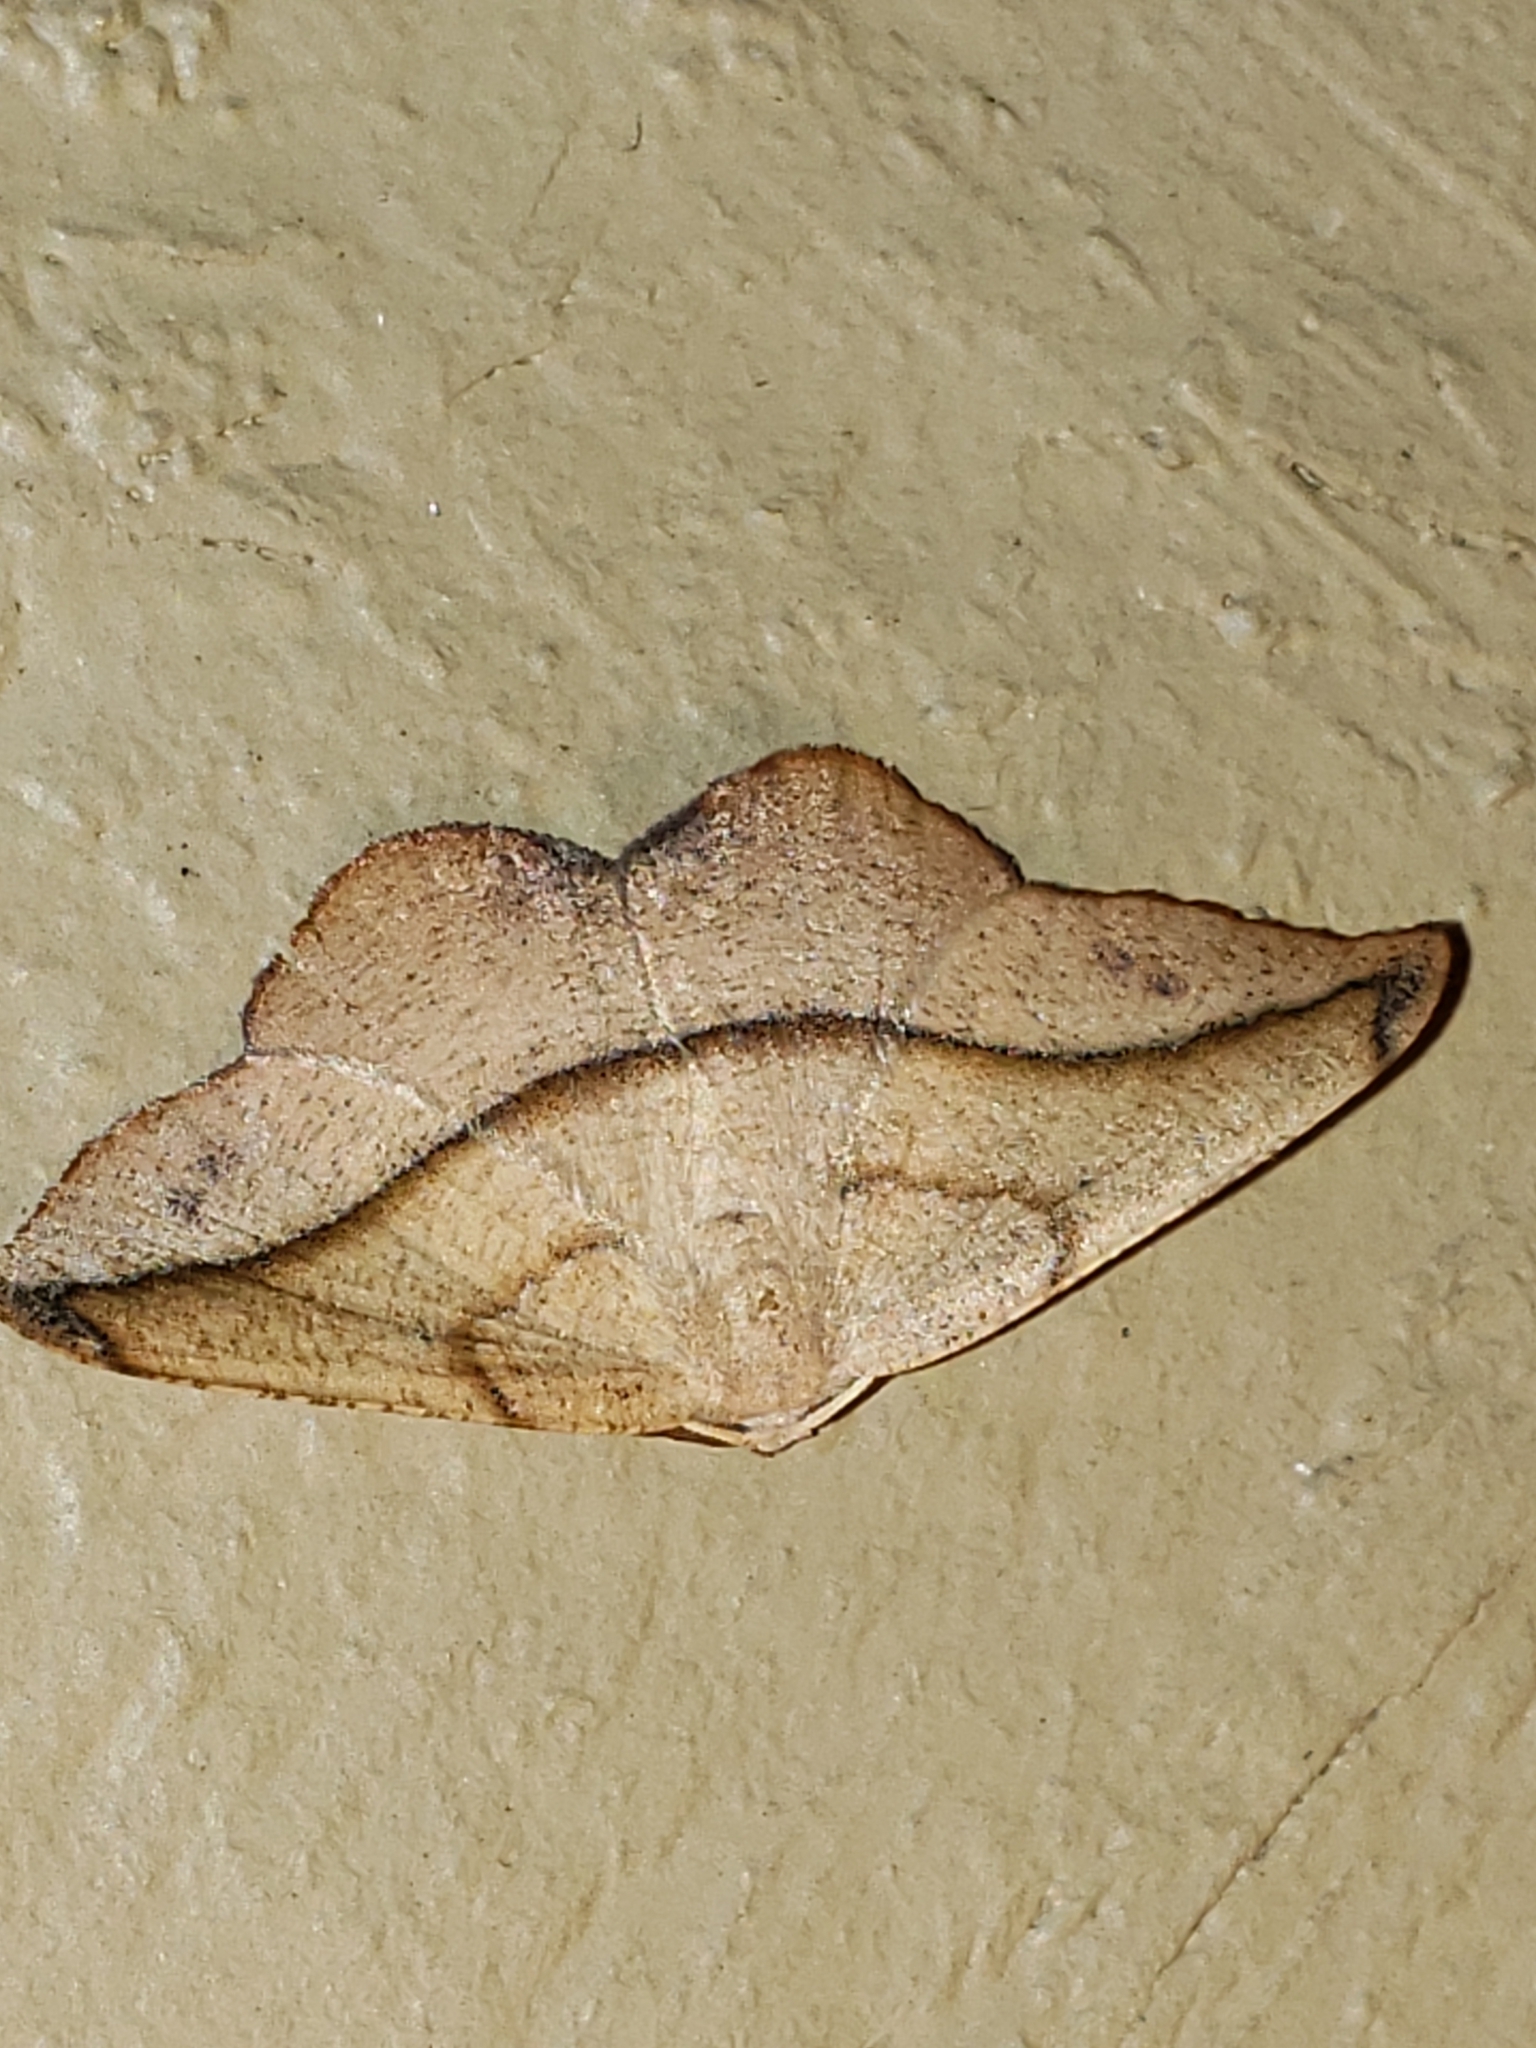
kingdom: Animalia
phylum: Arthropoda
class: Insecta
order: Lepidoptera
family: Geometridae
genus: Patalene
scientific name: Patalene olyzonaria
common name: Juniper geometer moth
